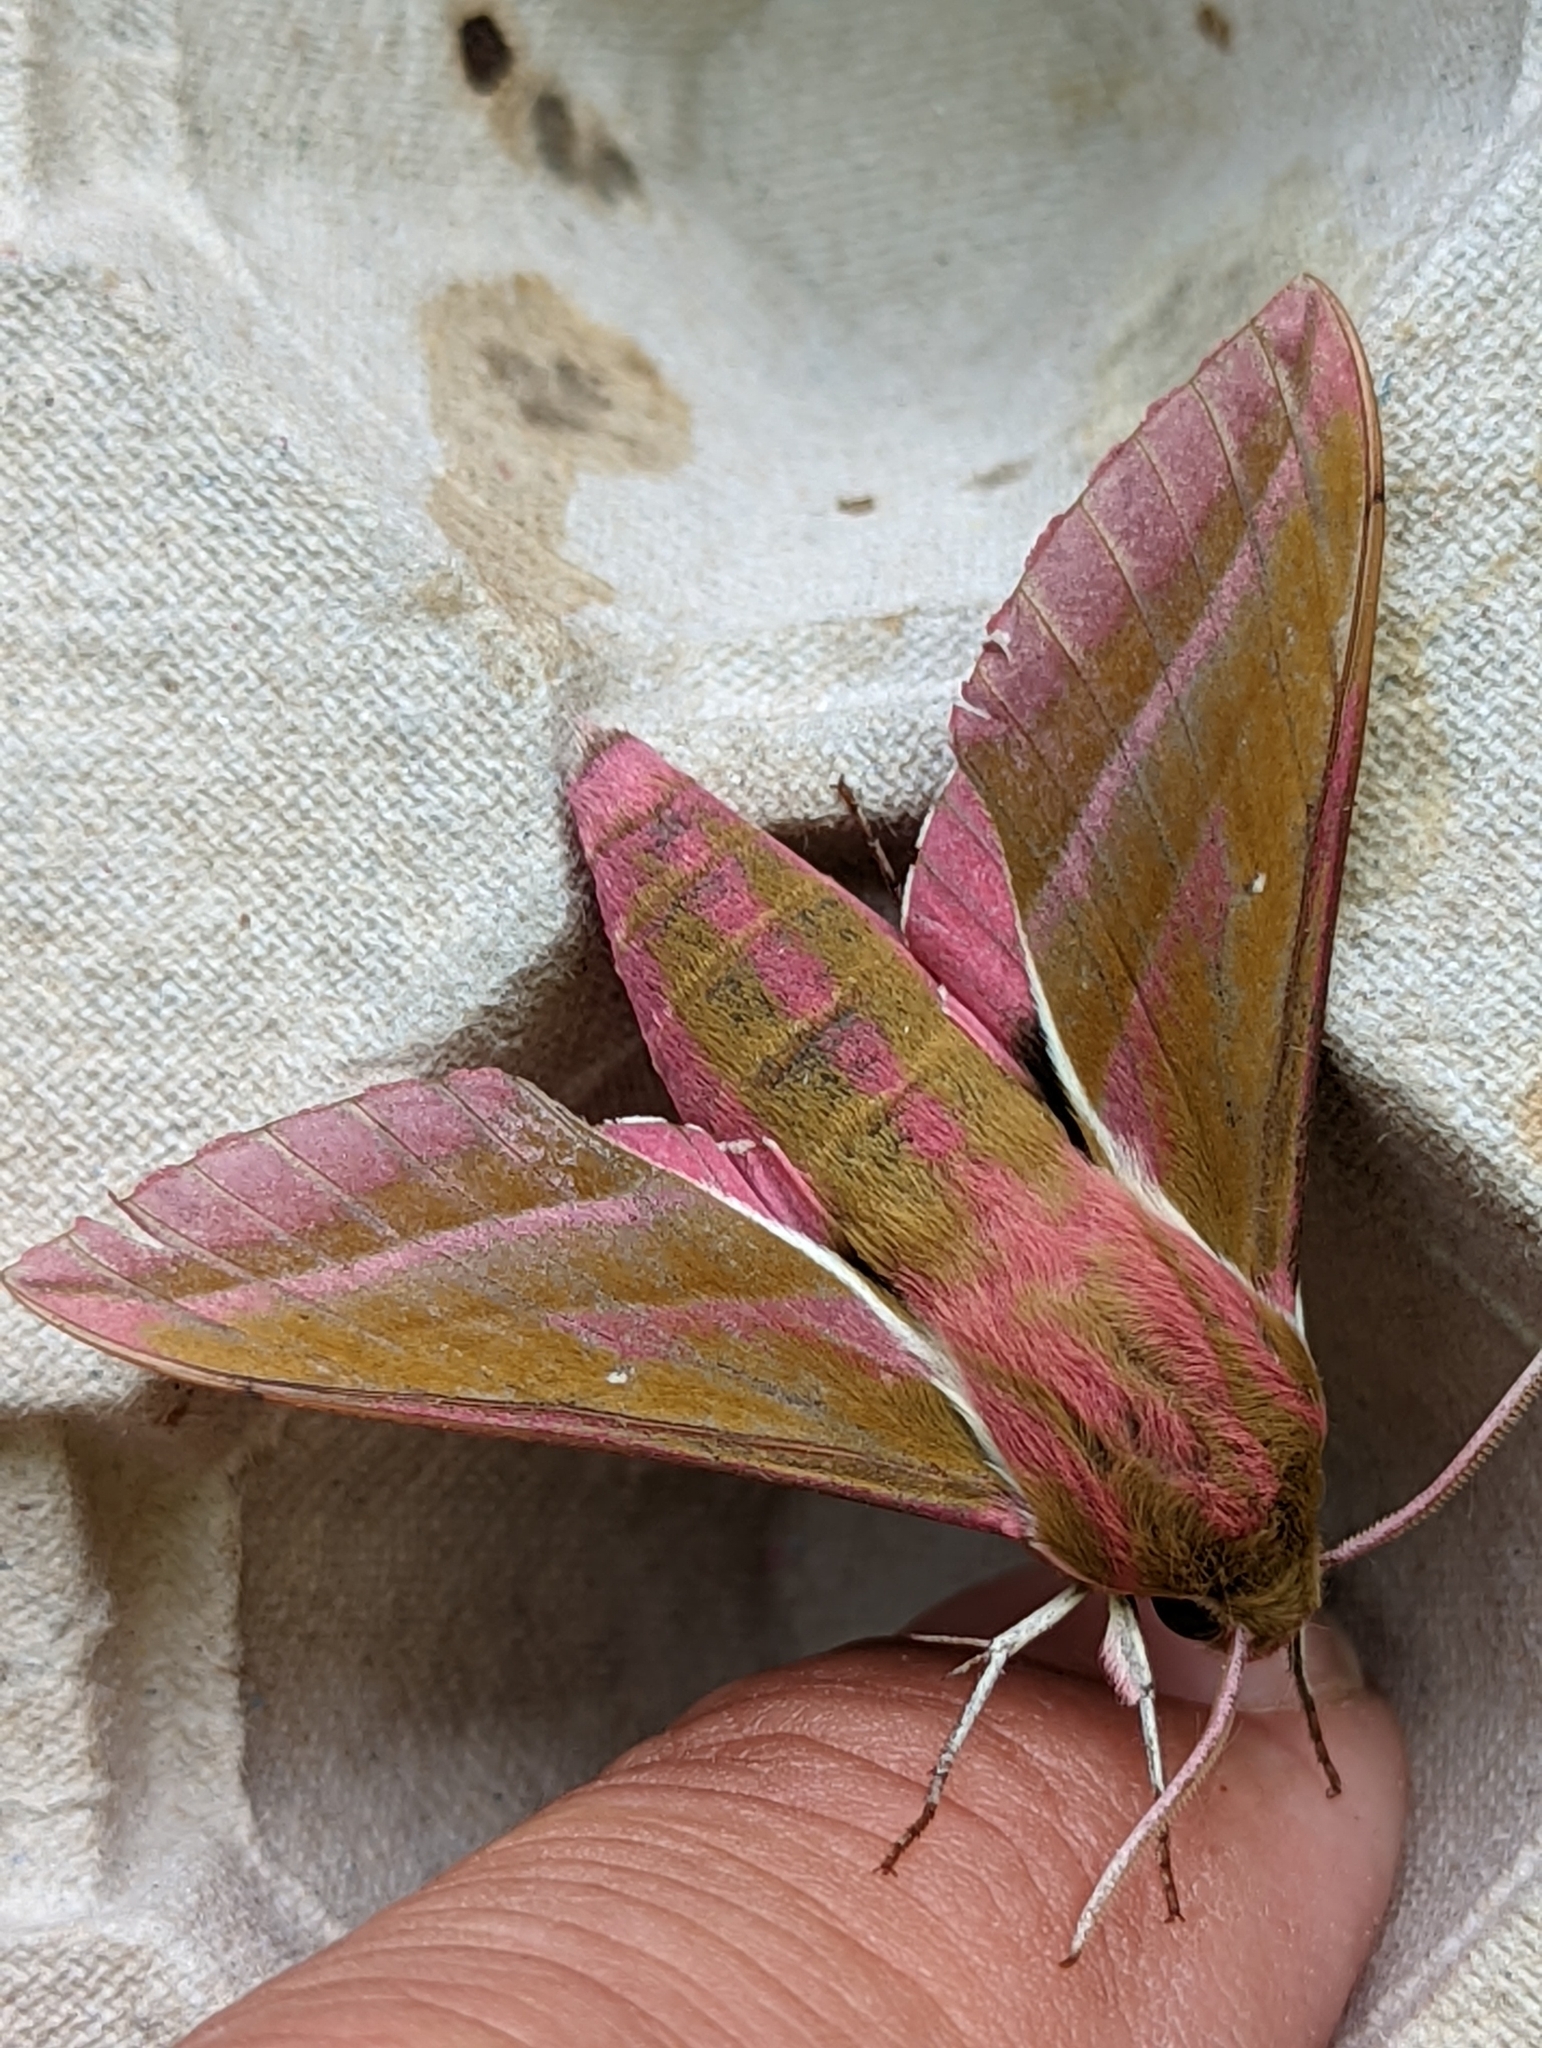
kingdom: Animalia
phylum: Arthropoda
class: Insecta
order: Lepidoptera
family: Sphingidae
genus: Deilephila
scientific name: Deilephila elpenor
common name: Elephant hawk-moth
